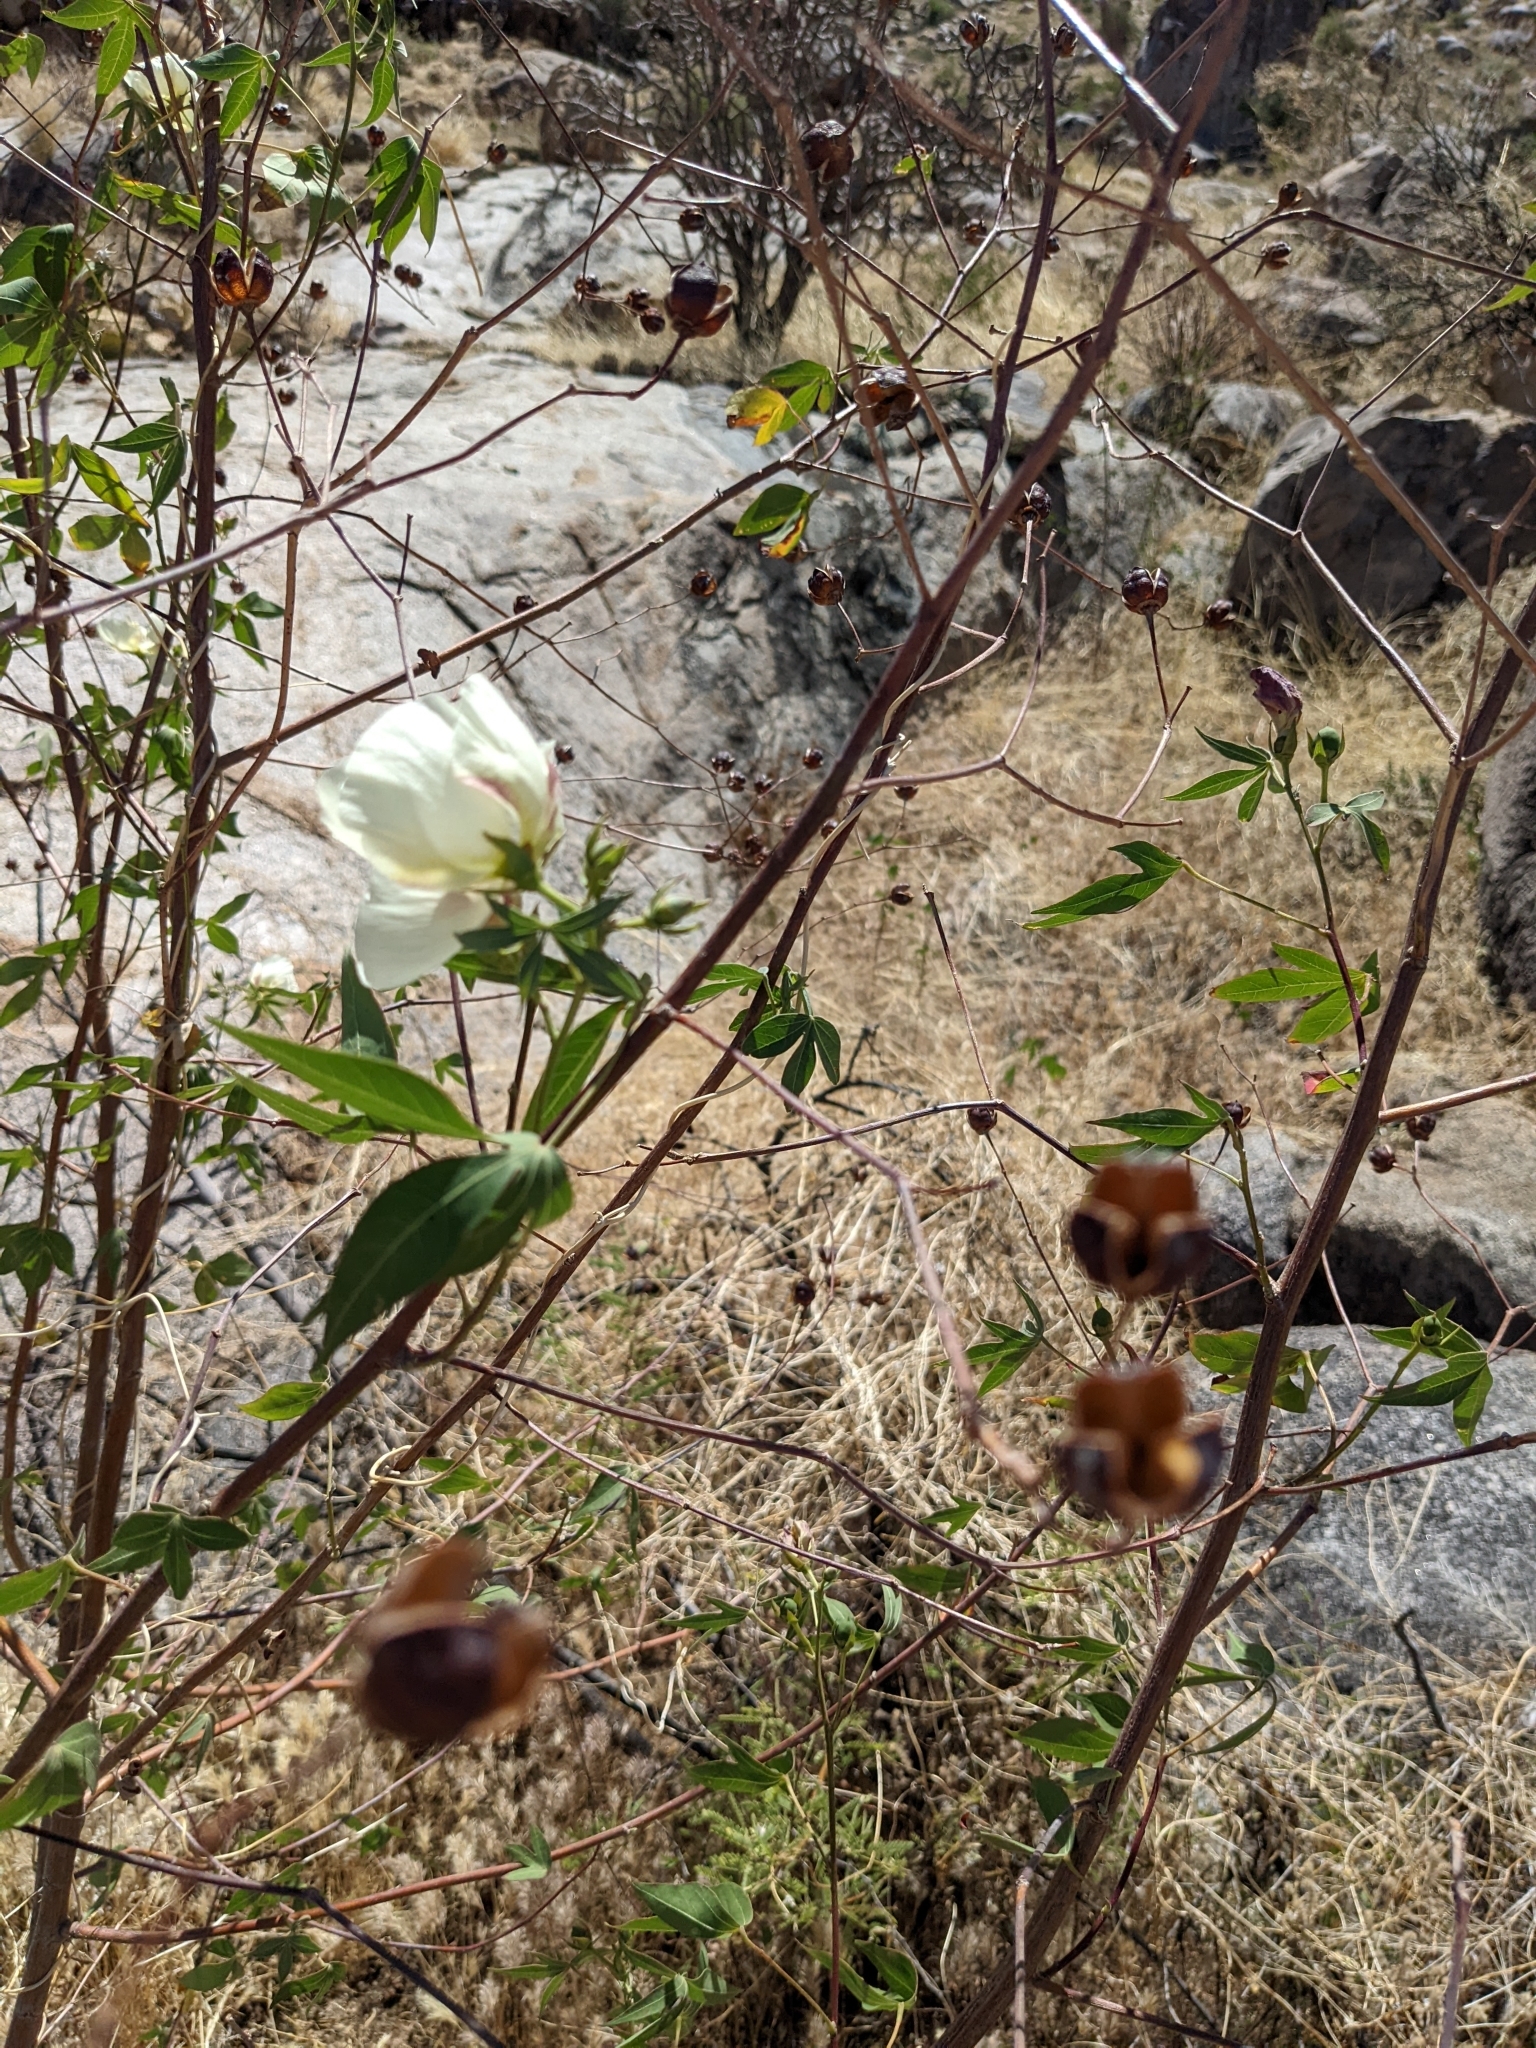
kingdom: Plantae
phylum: Tracheophyta
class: Magnoliopsida
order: Malvales
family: Malvaceae
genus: Gossypium
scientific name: Gossypium thurberi
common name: Desert cotton
